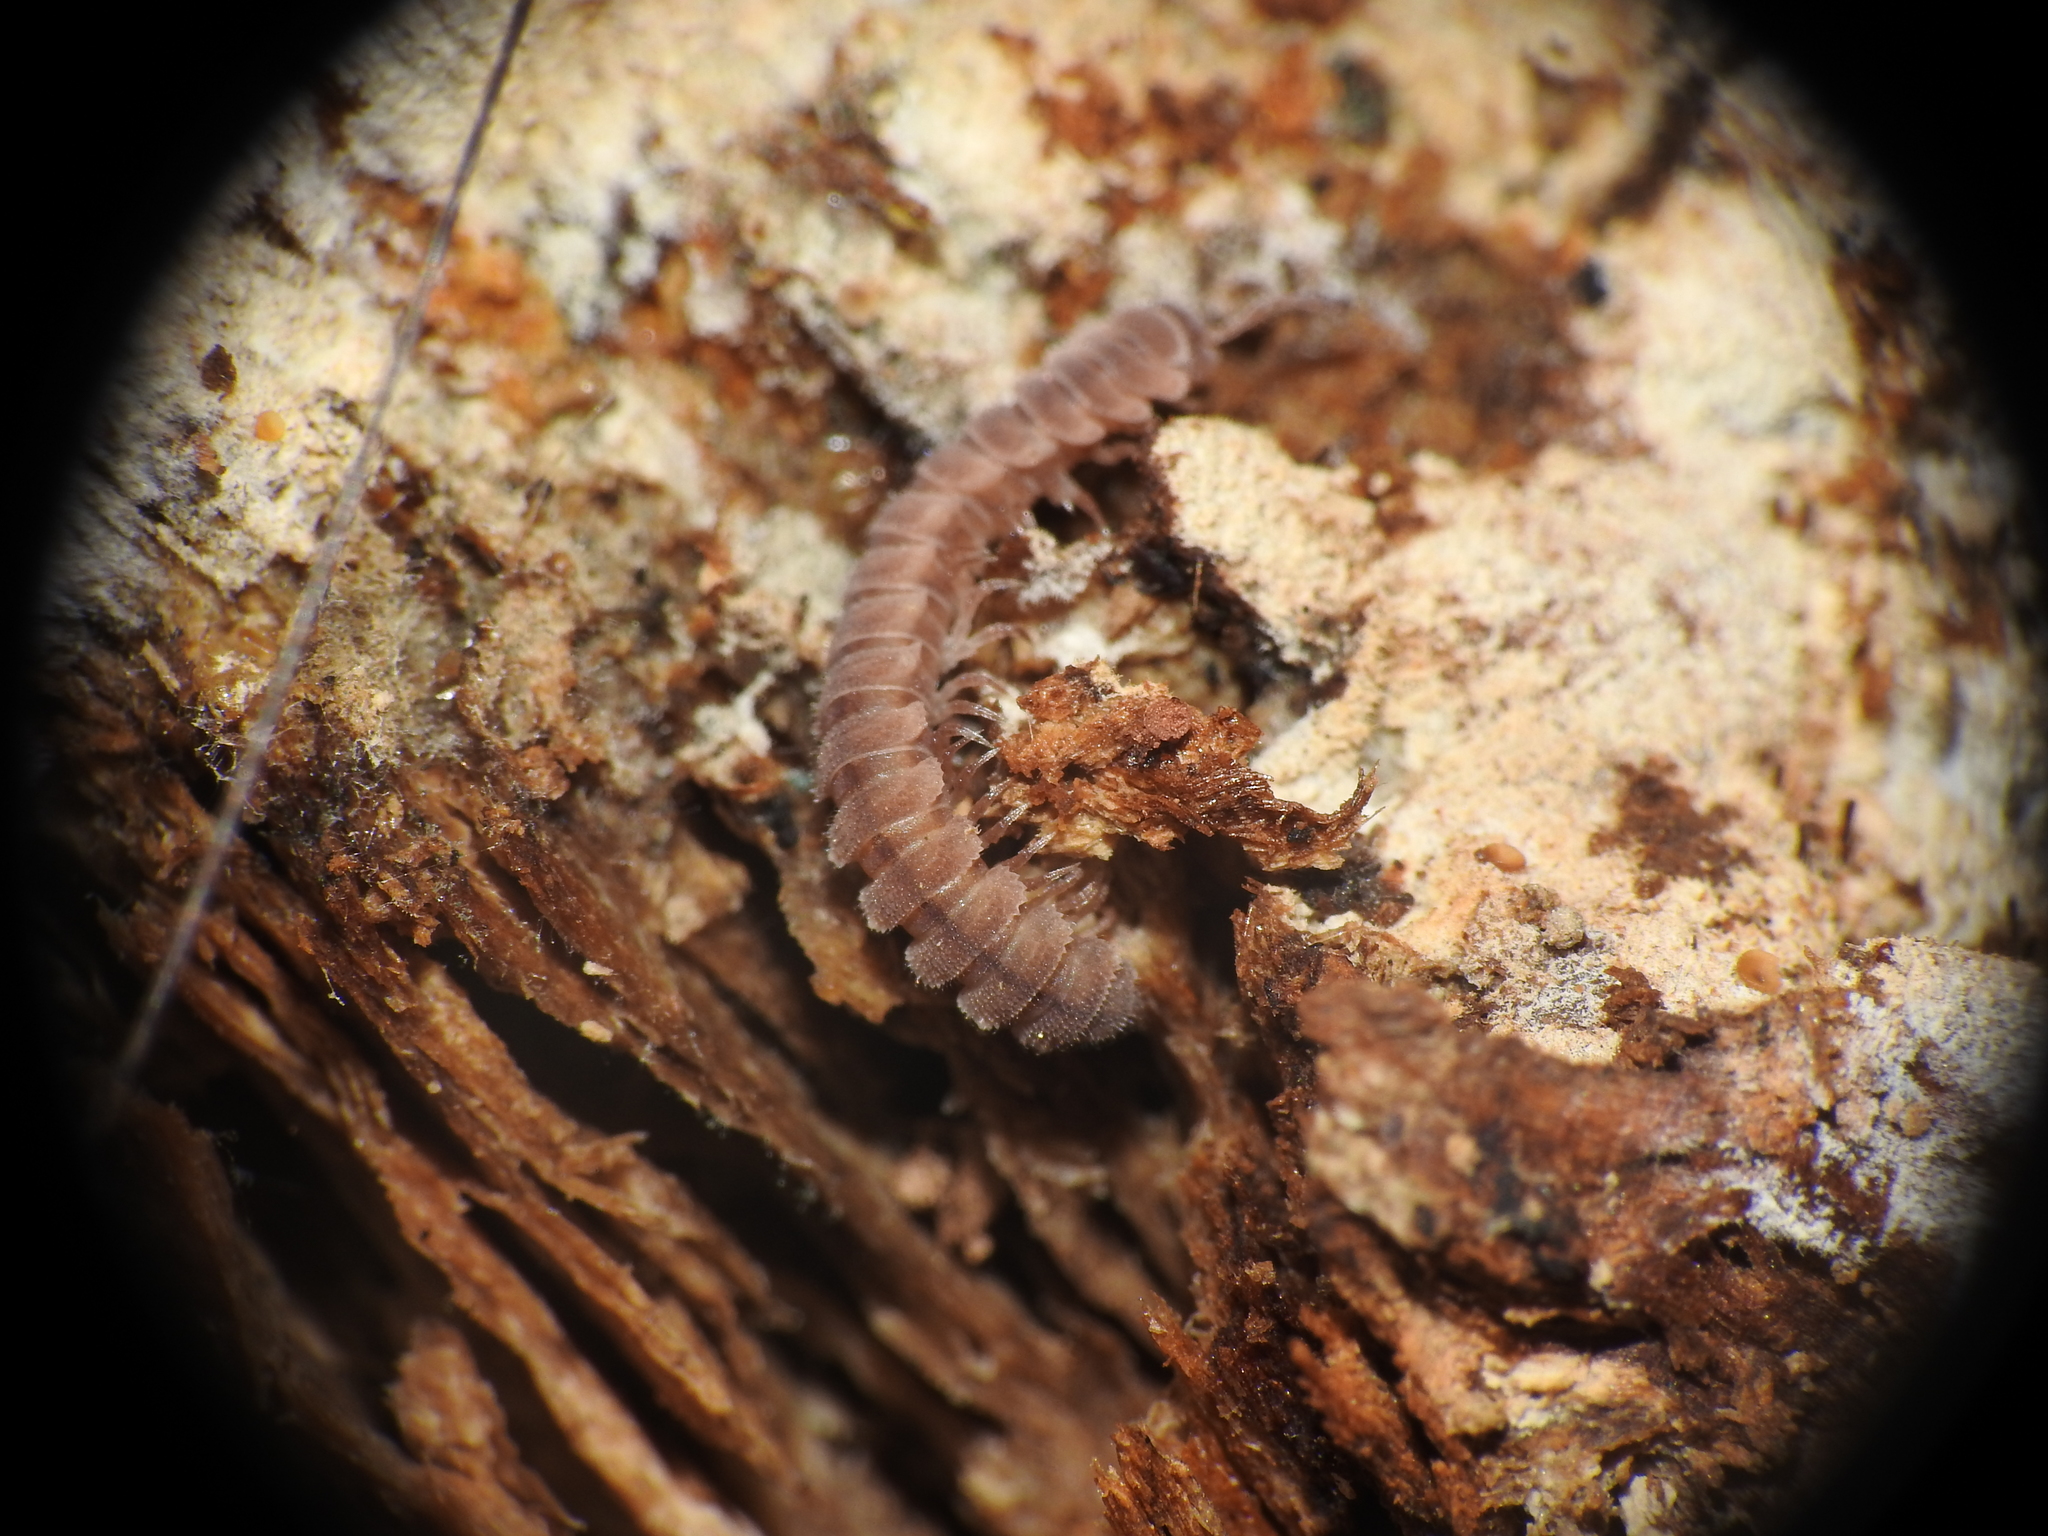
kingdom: Animalia
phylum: Arthropoda
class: Diplopoda
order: Polydesmida
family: Polydesmidae
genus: Scytonotus
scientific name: Scytonotus granulatus
